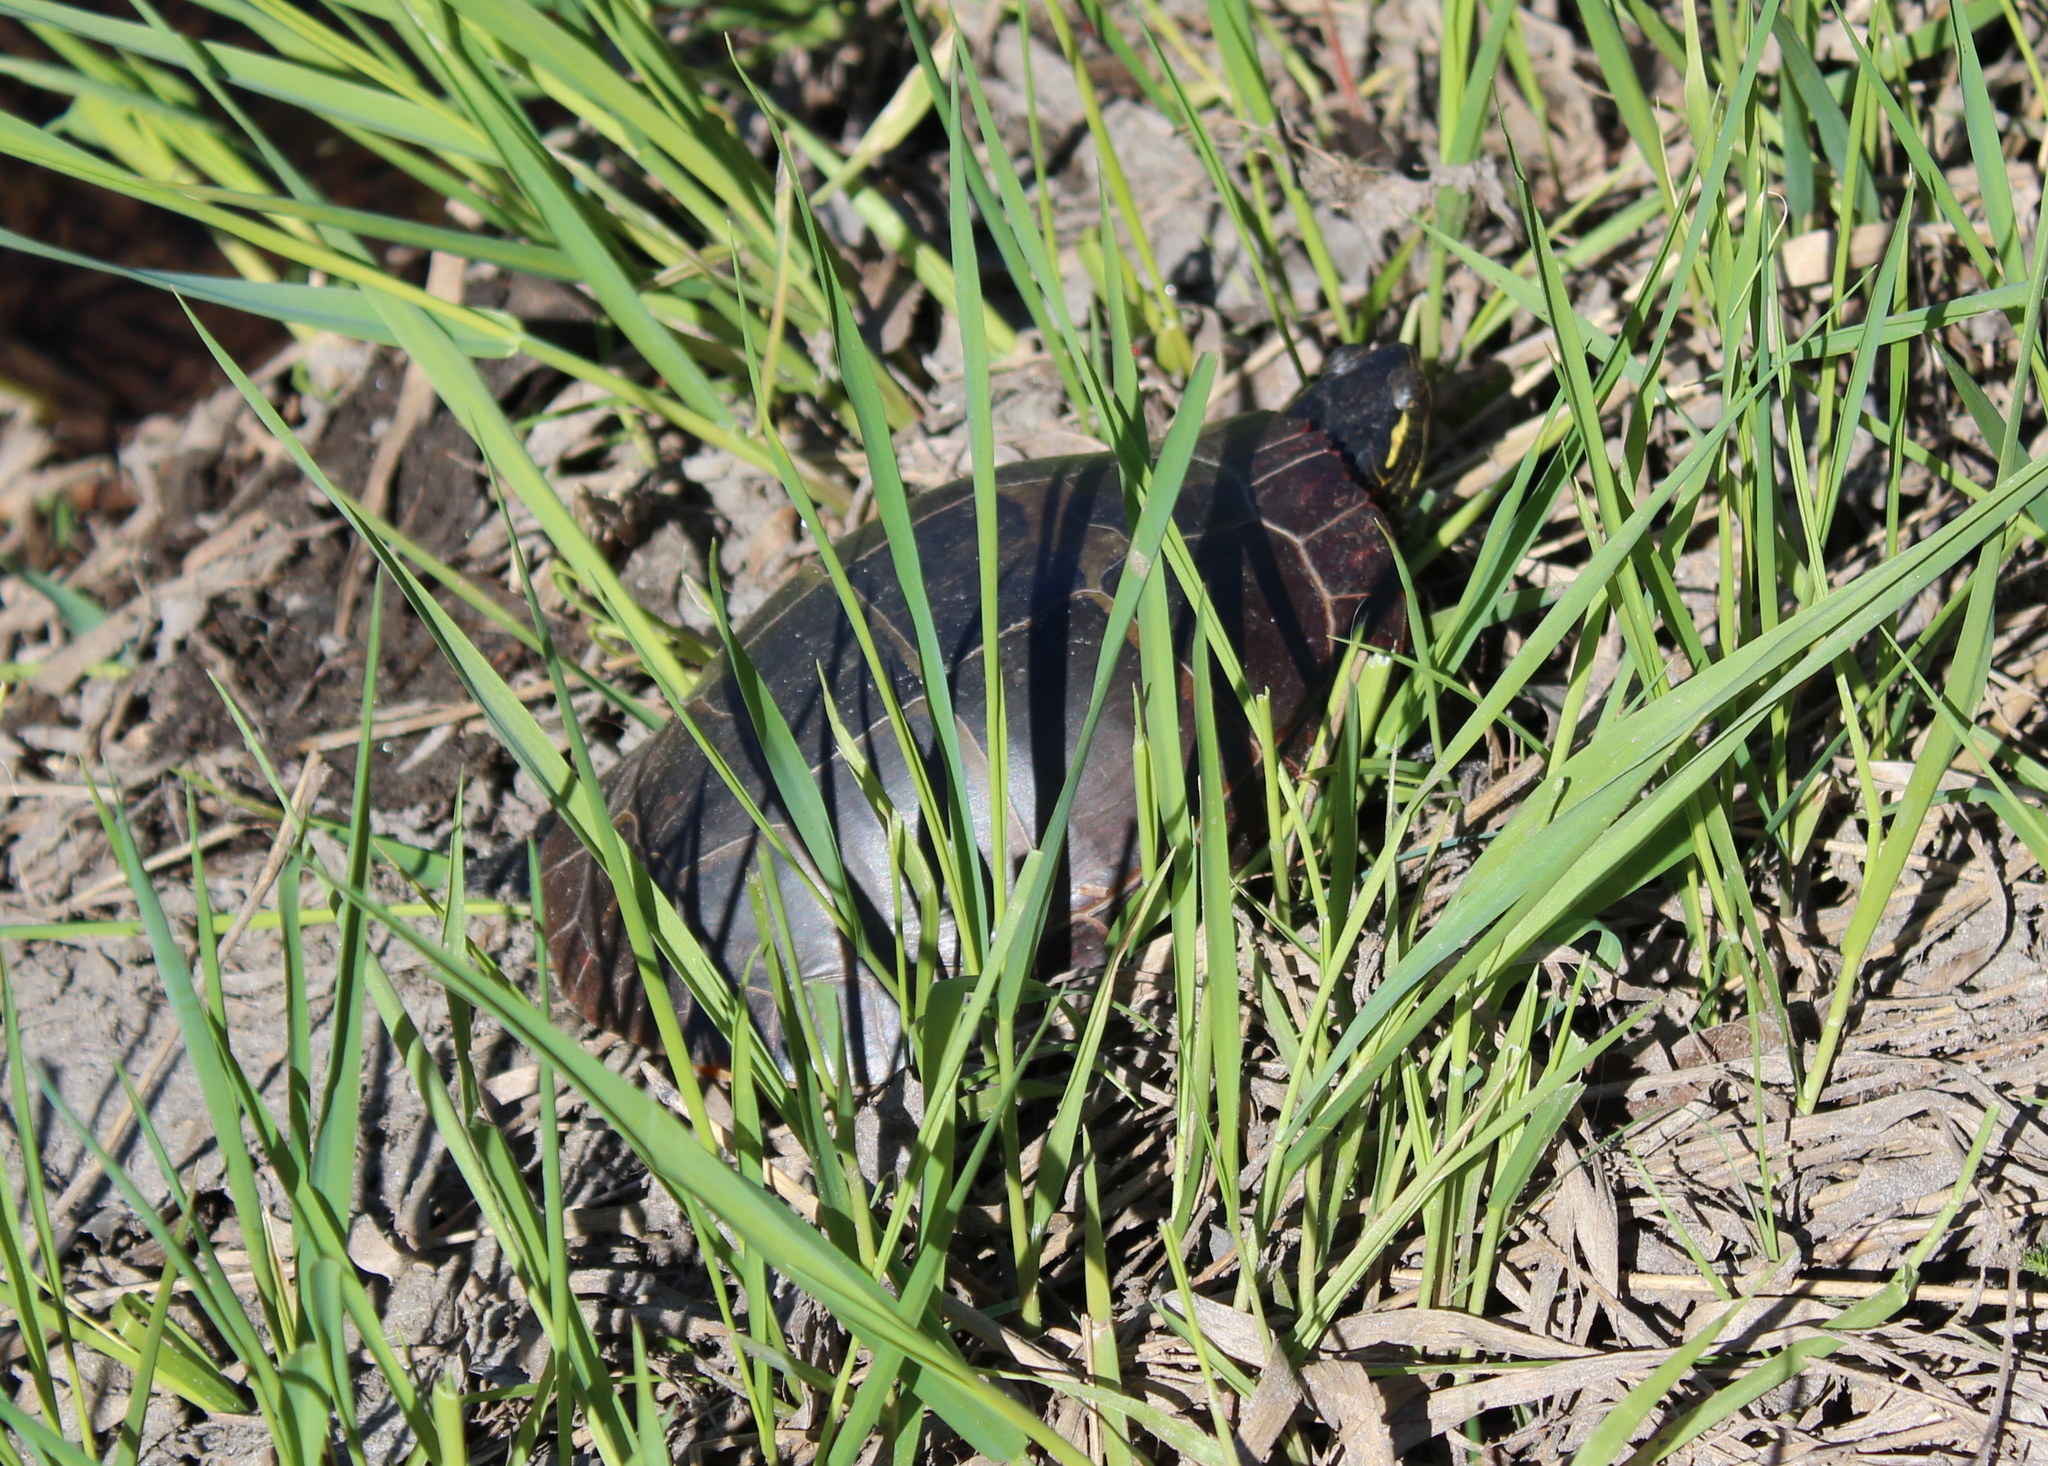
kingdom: Animalia
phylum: Chordata
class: Testudines
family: Emydidae
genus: Chrysemys
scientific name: Chrysemys picta
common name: Painted turtle
